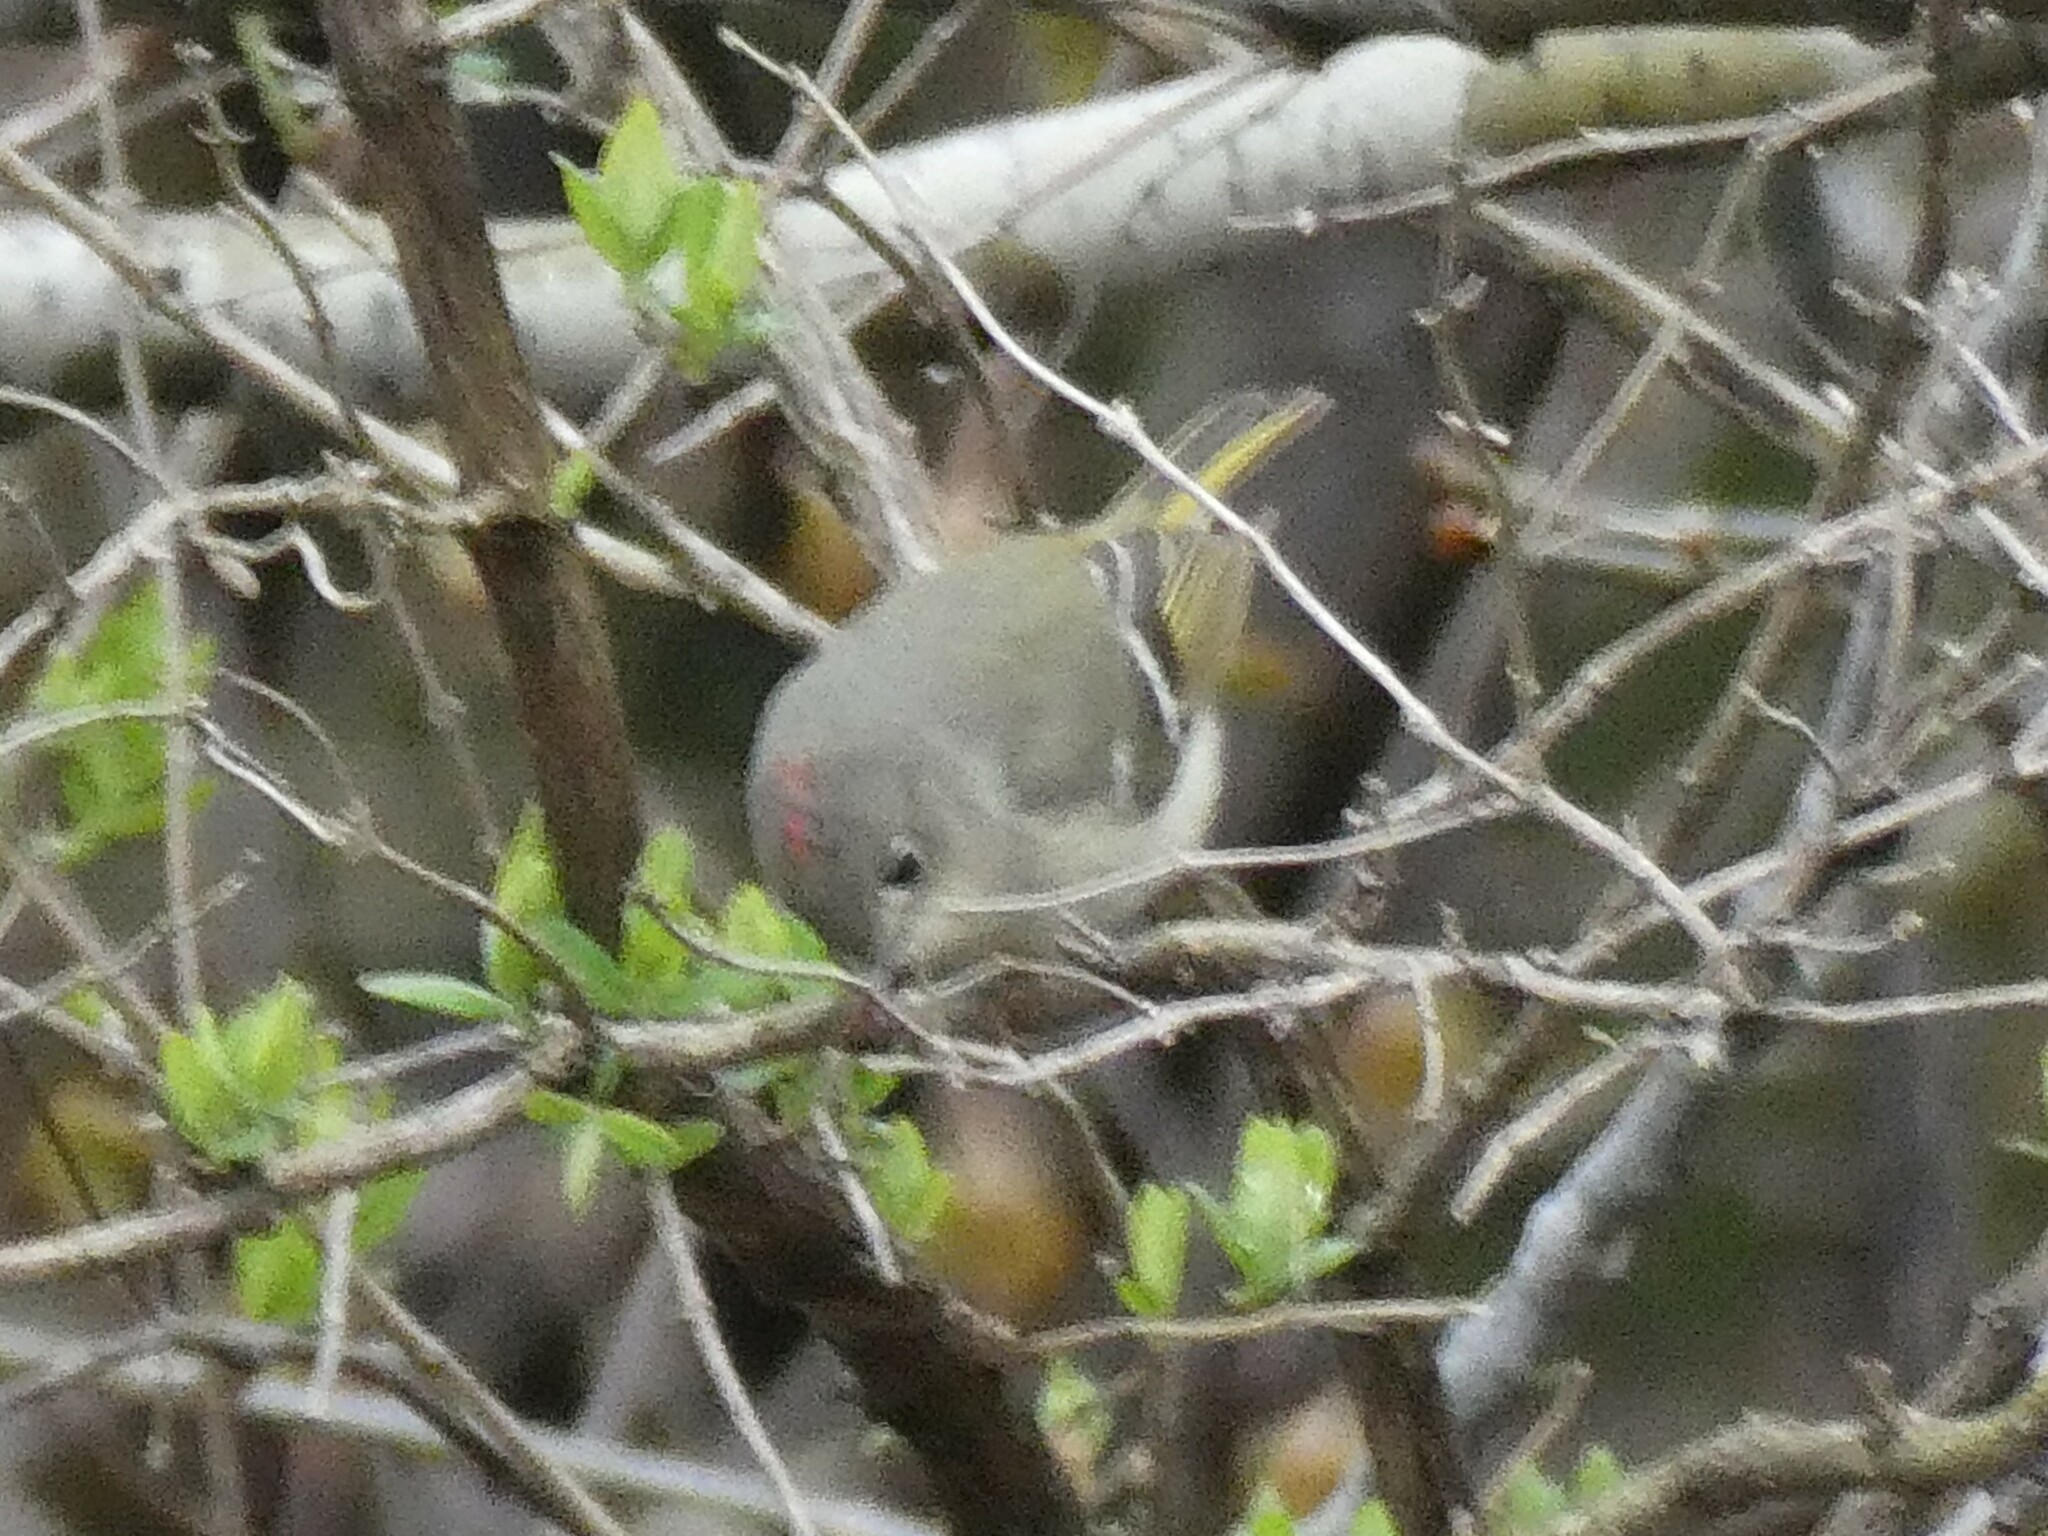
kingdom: Animalia
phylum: Chordata
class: Aves
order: Passeriformes
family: Regulidae
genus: Regulus
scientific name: Regulus calendula
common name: Ruby-crowned kinglet
